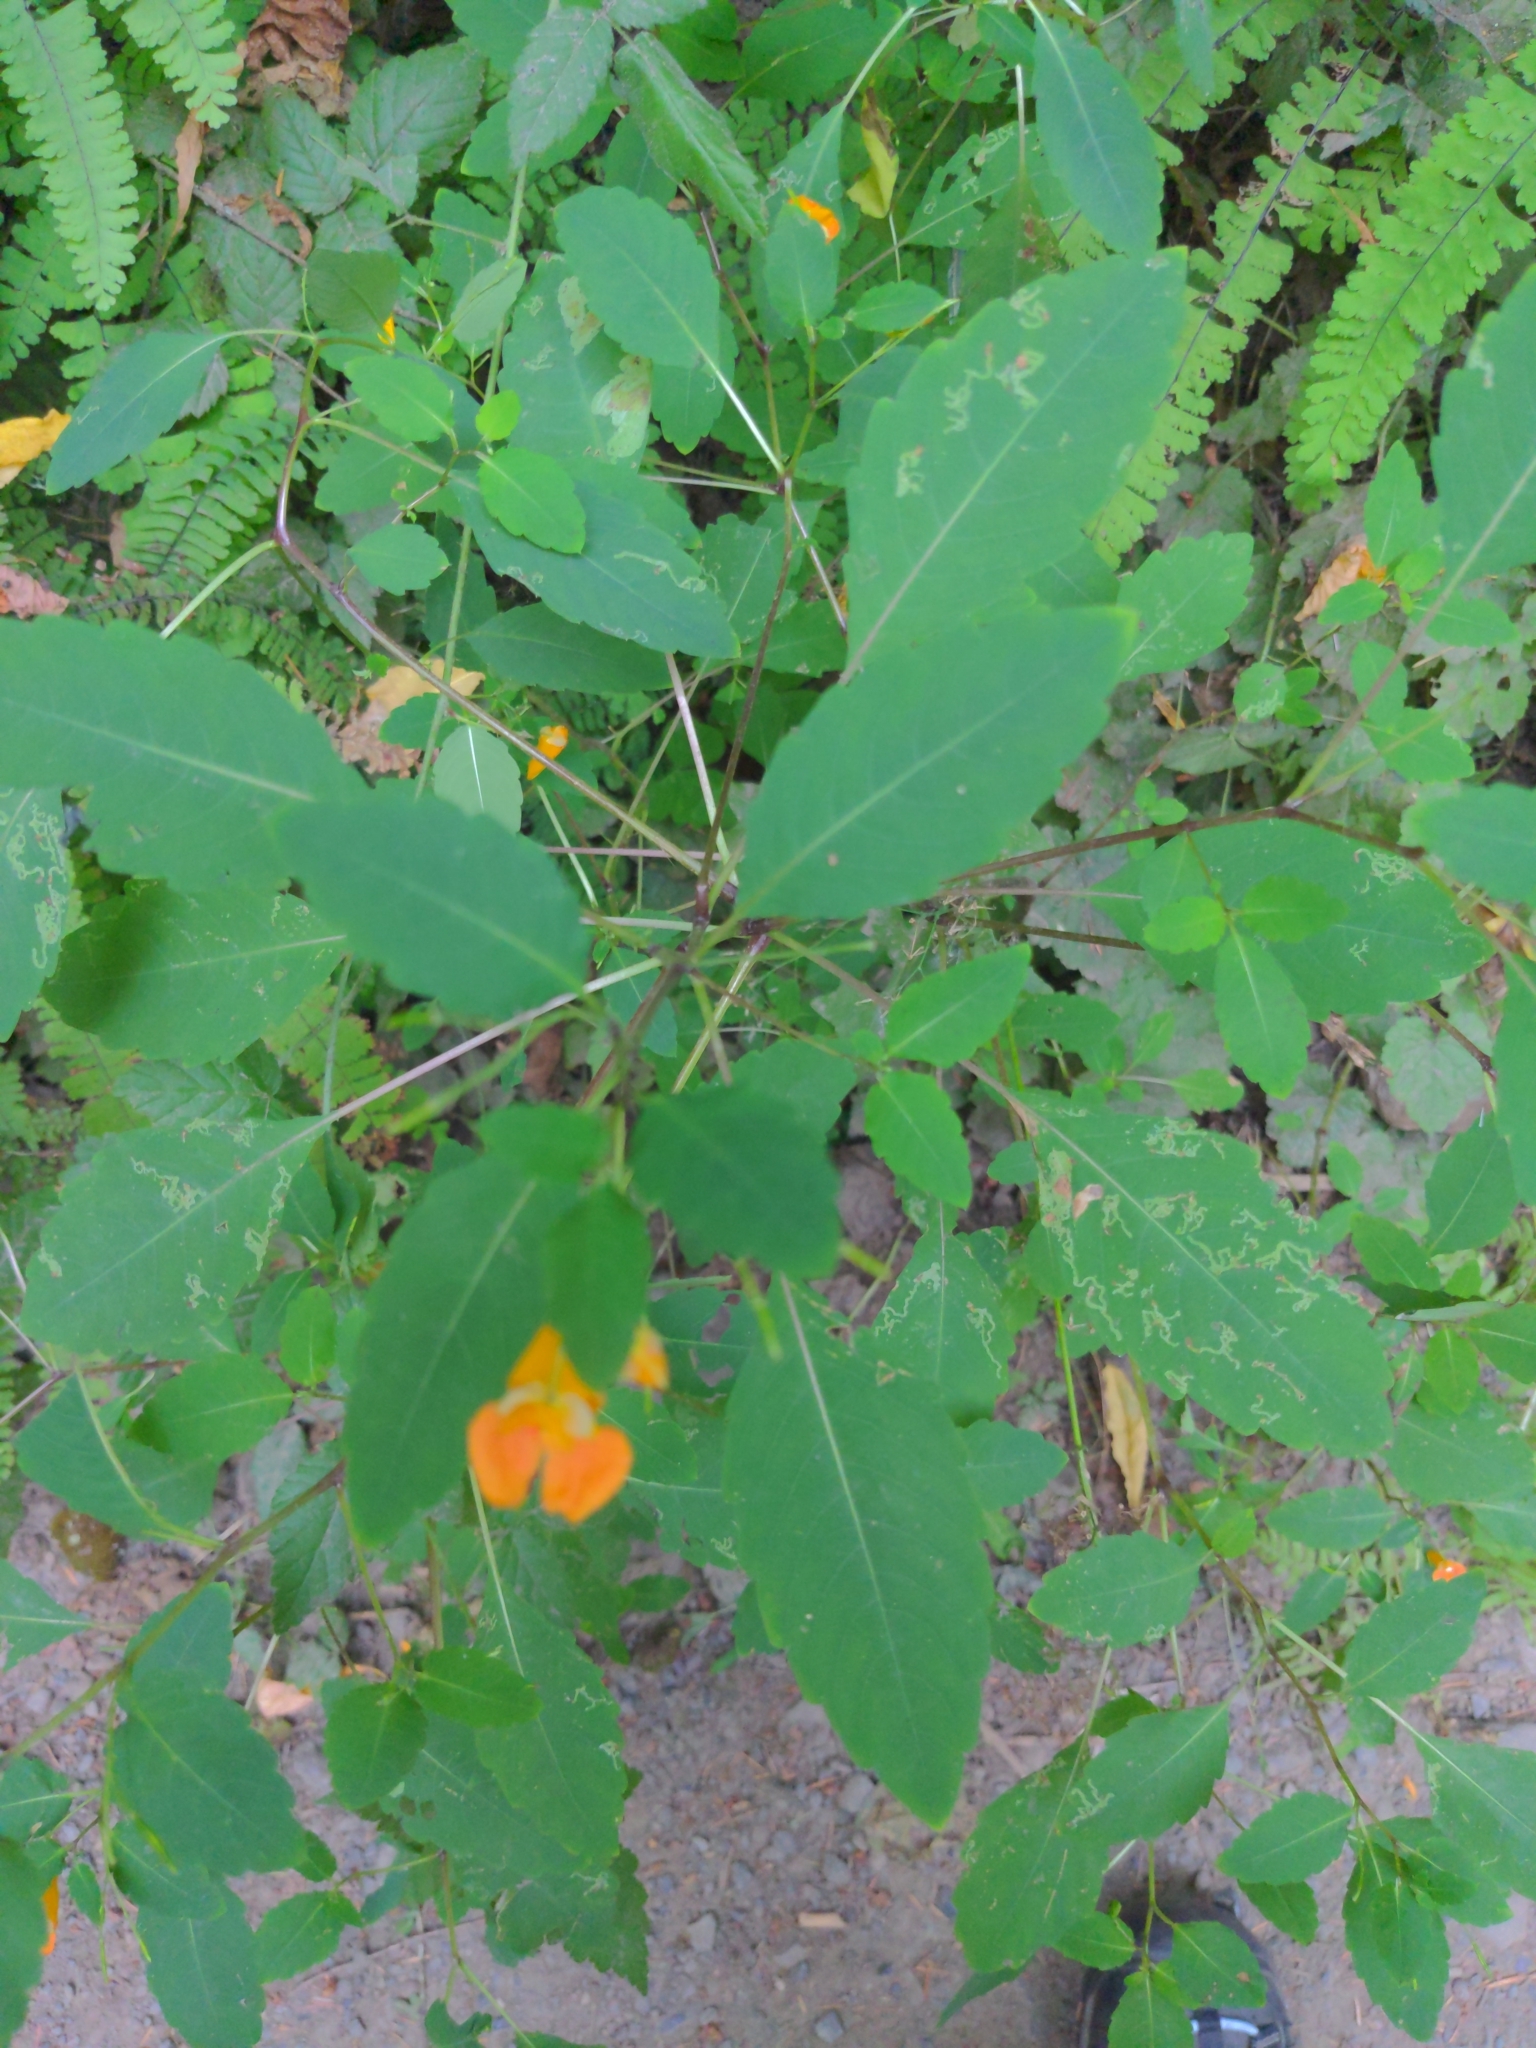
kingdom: Plantae
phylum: Tracheophyta
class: Magnoliopsida
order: Ericales
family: Balsaminaceae
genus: Impatiens
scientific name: Impatiens capensis
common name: Orange balsam
